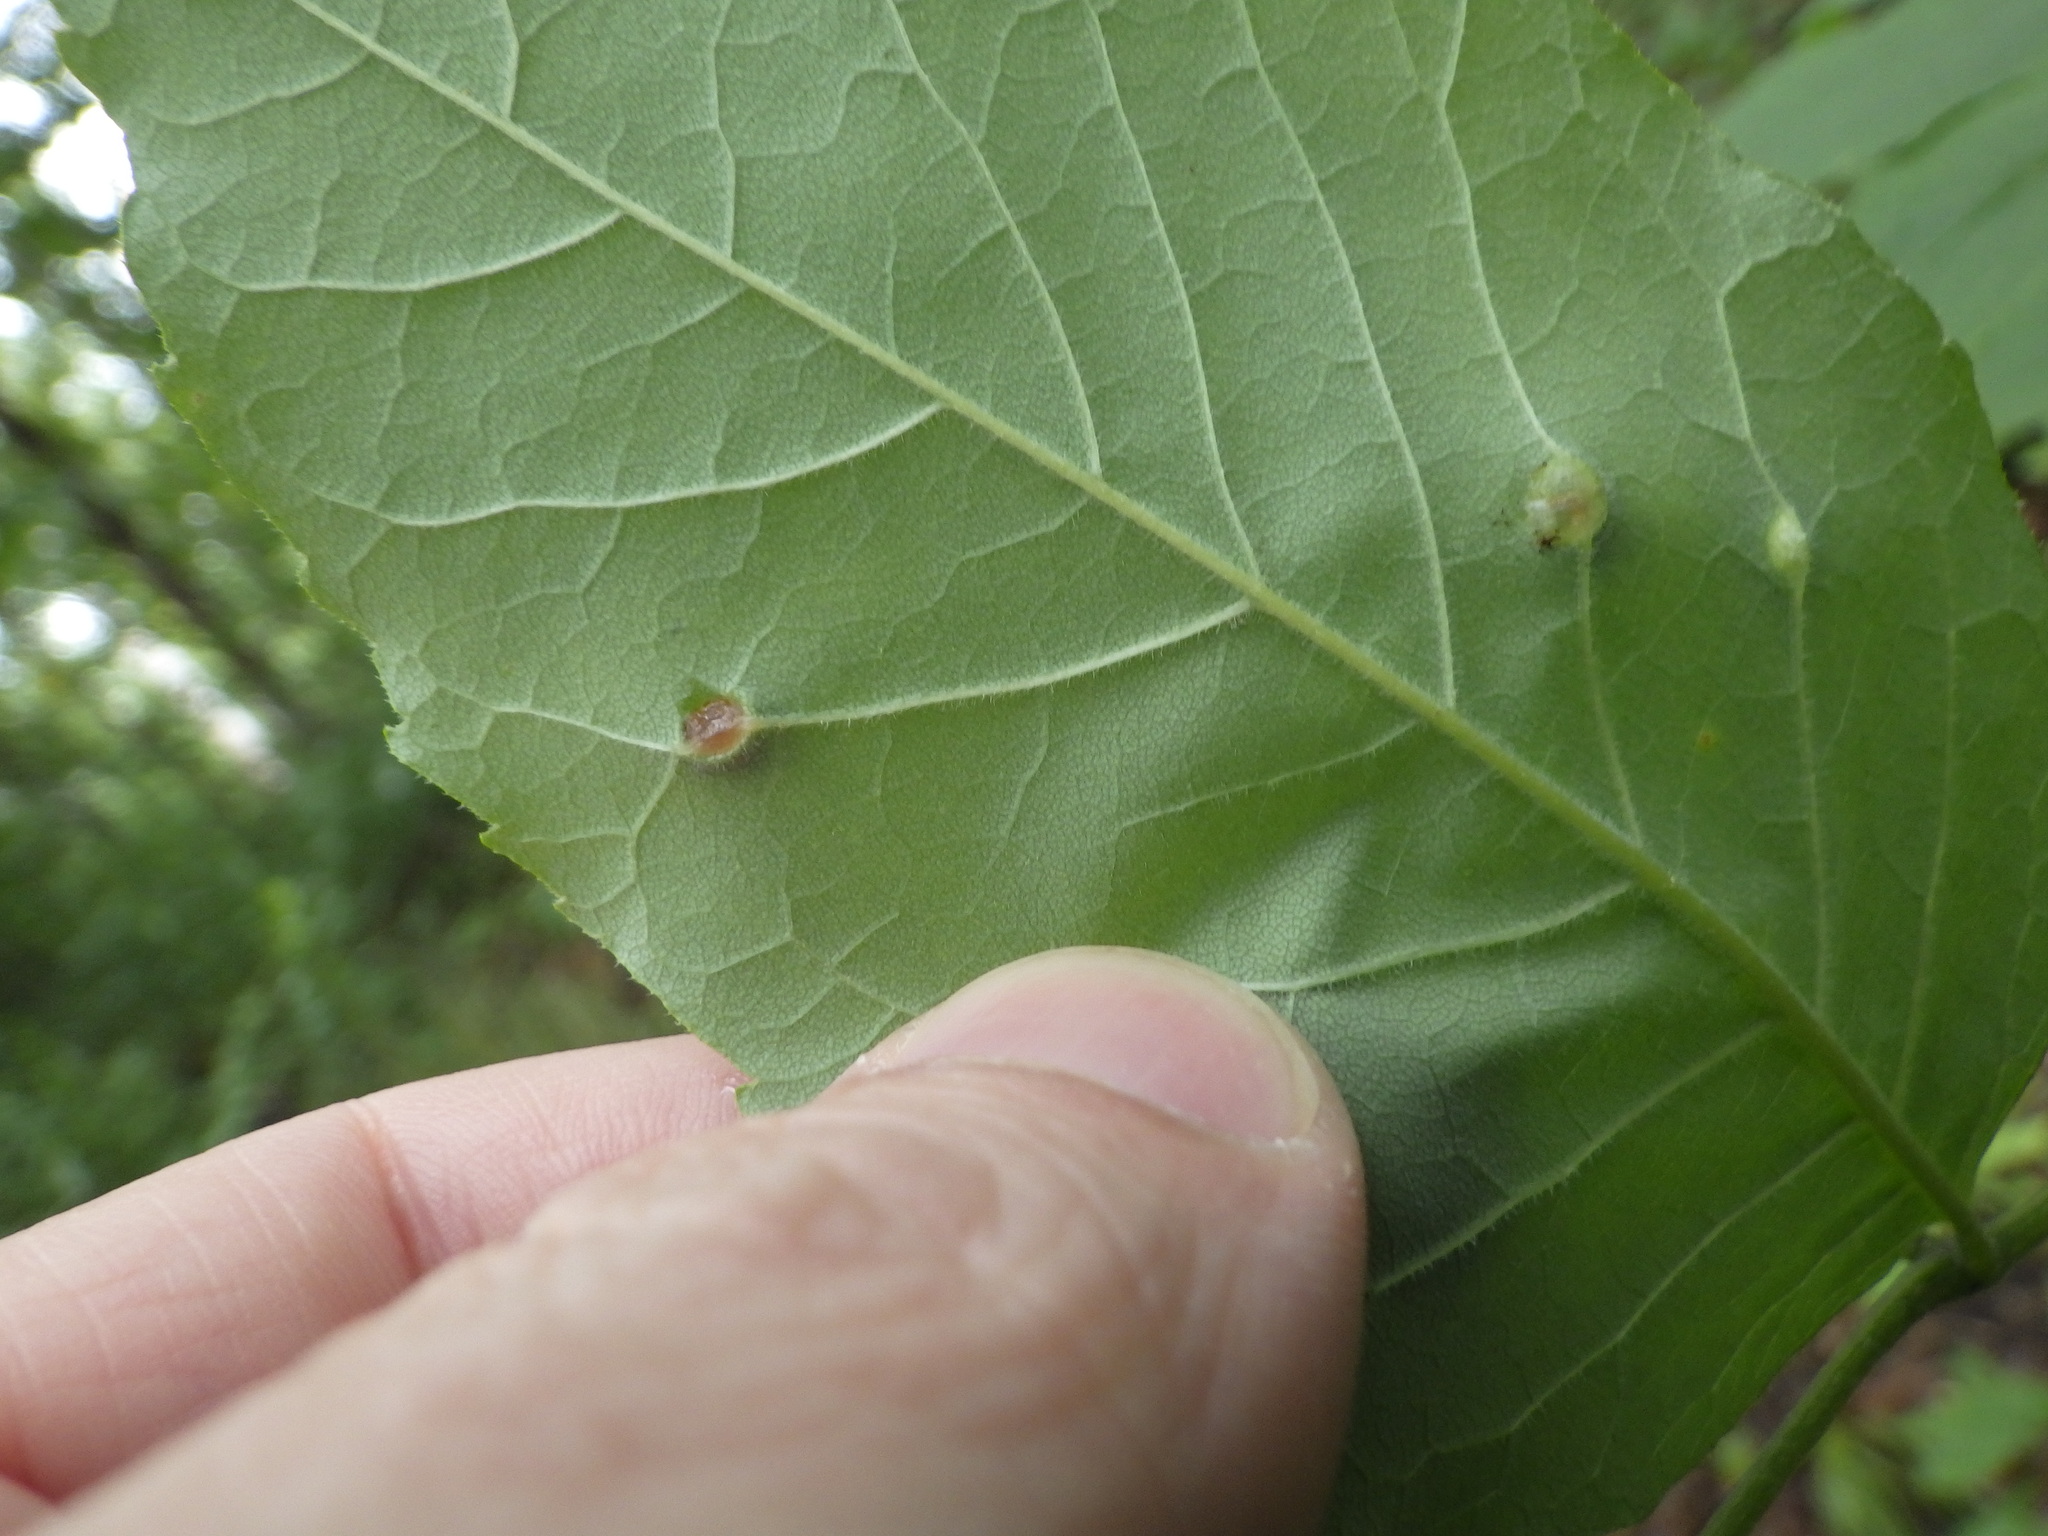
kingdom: Animalia
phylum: Arthropoda
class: Insecta
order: Diptera
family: Cecidomyiidae
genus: Dasineura
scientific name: Dasineura pellex
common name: Ash bullet gall midge
